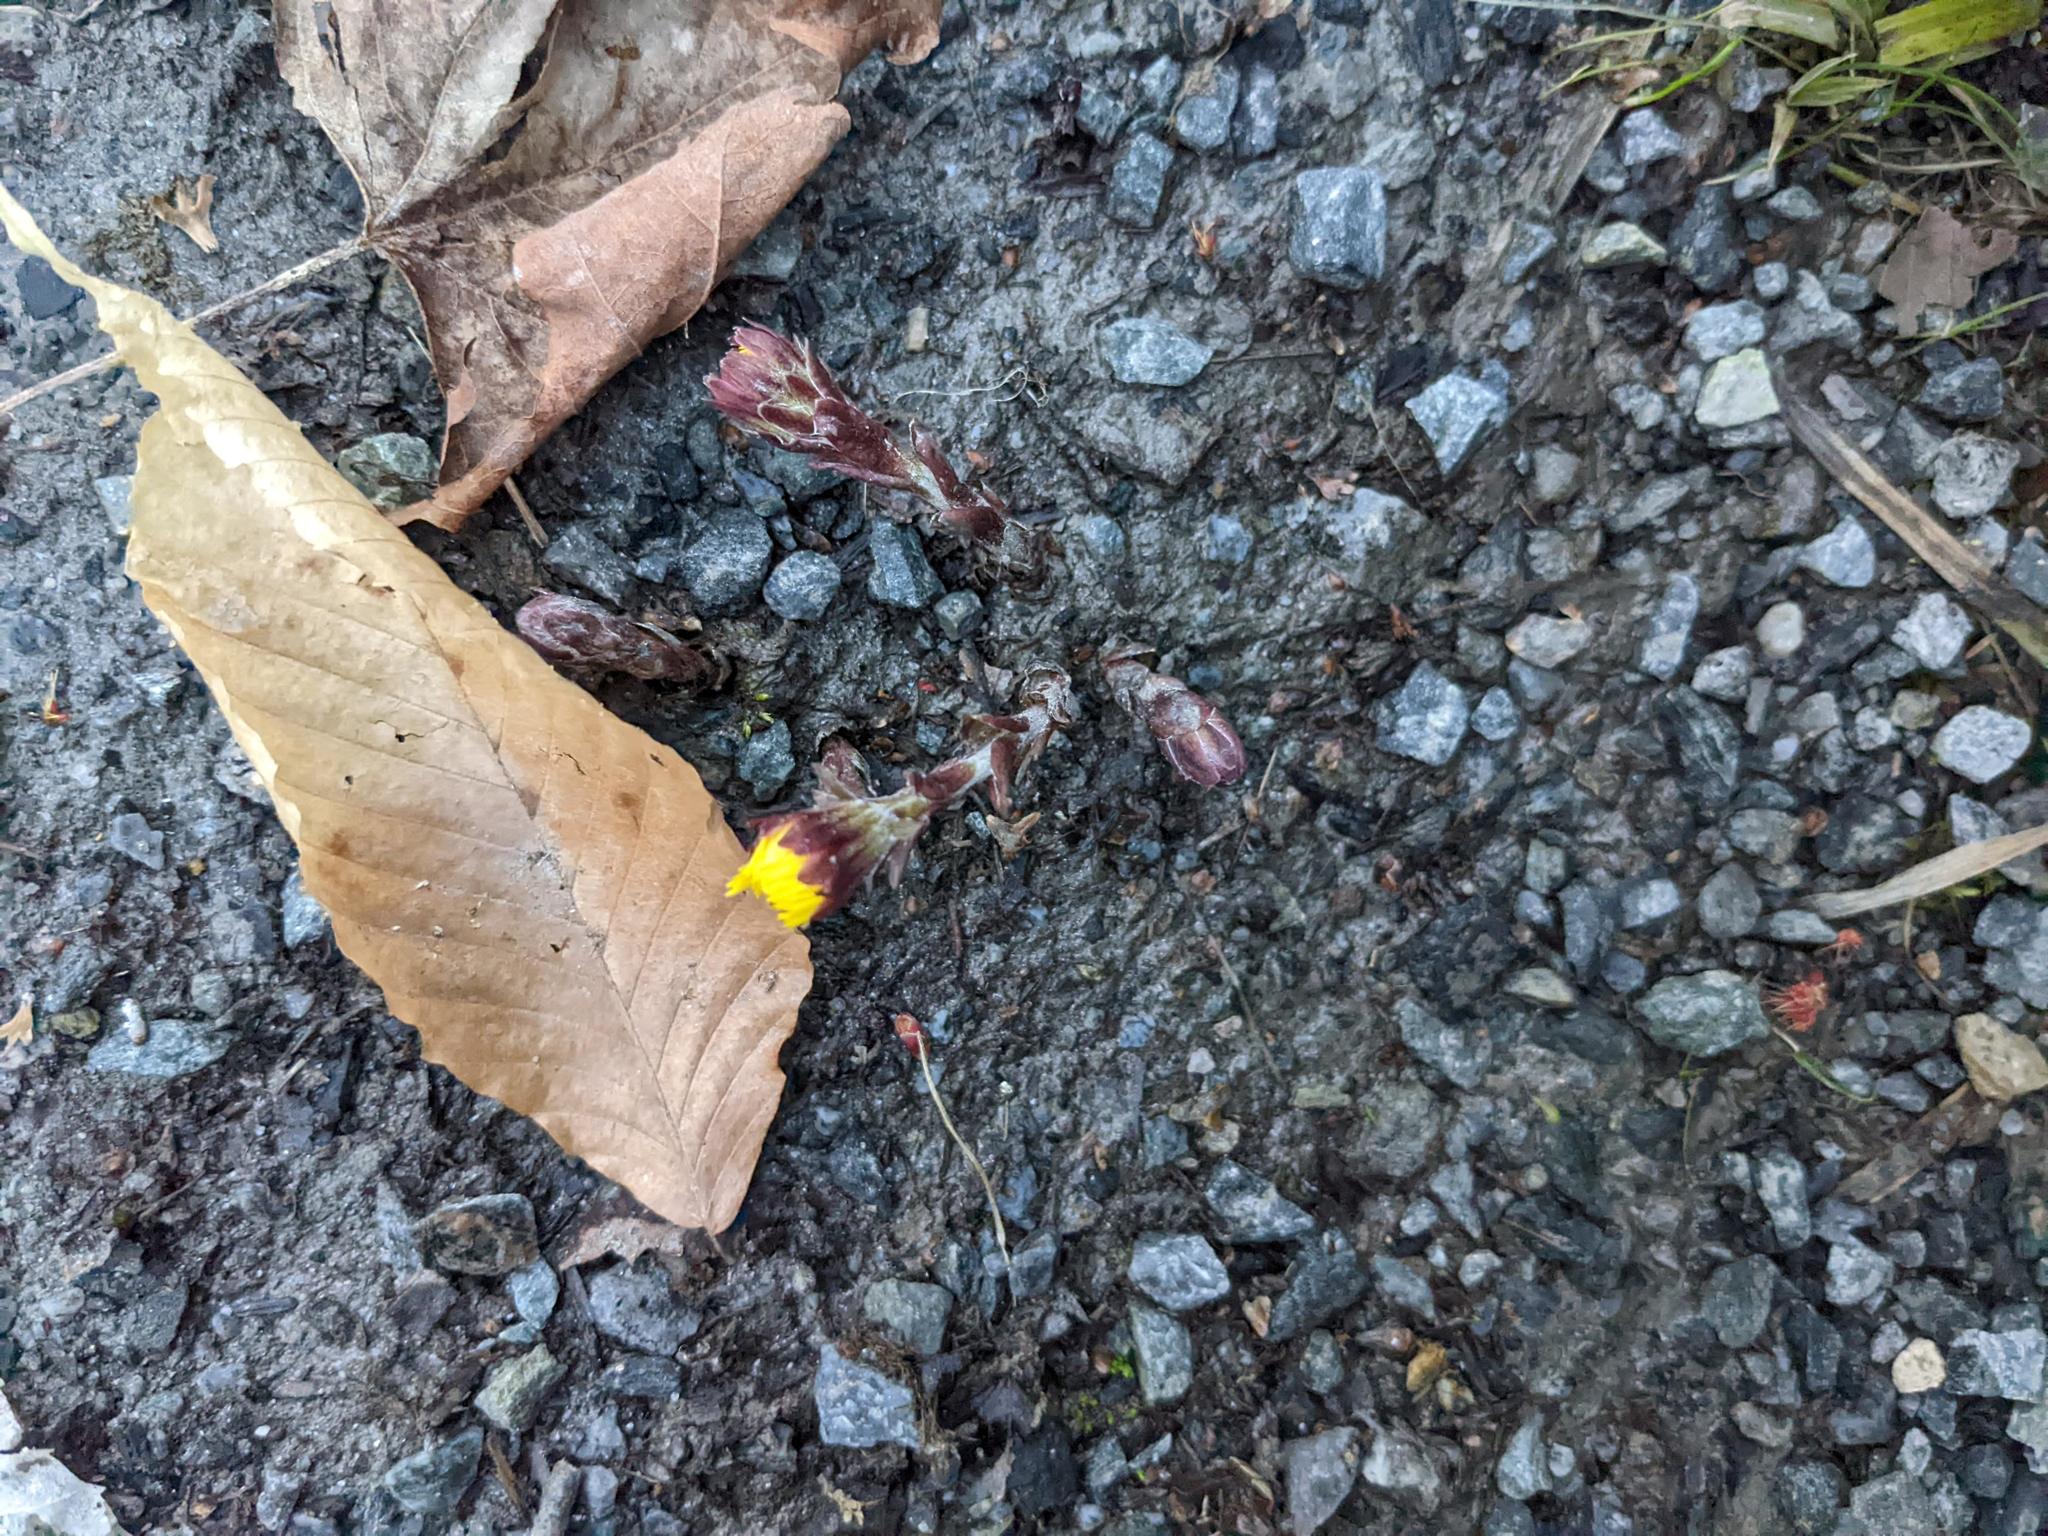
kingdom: Plantae
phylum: Tracheophyta
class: Magnoliopsida
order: Fagales
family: Fagaceae
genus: Fagus
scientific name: Fagus grandifolia
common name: American beech
